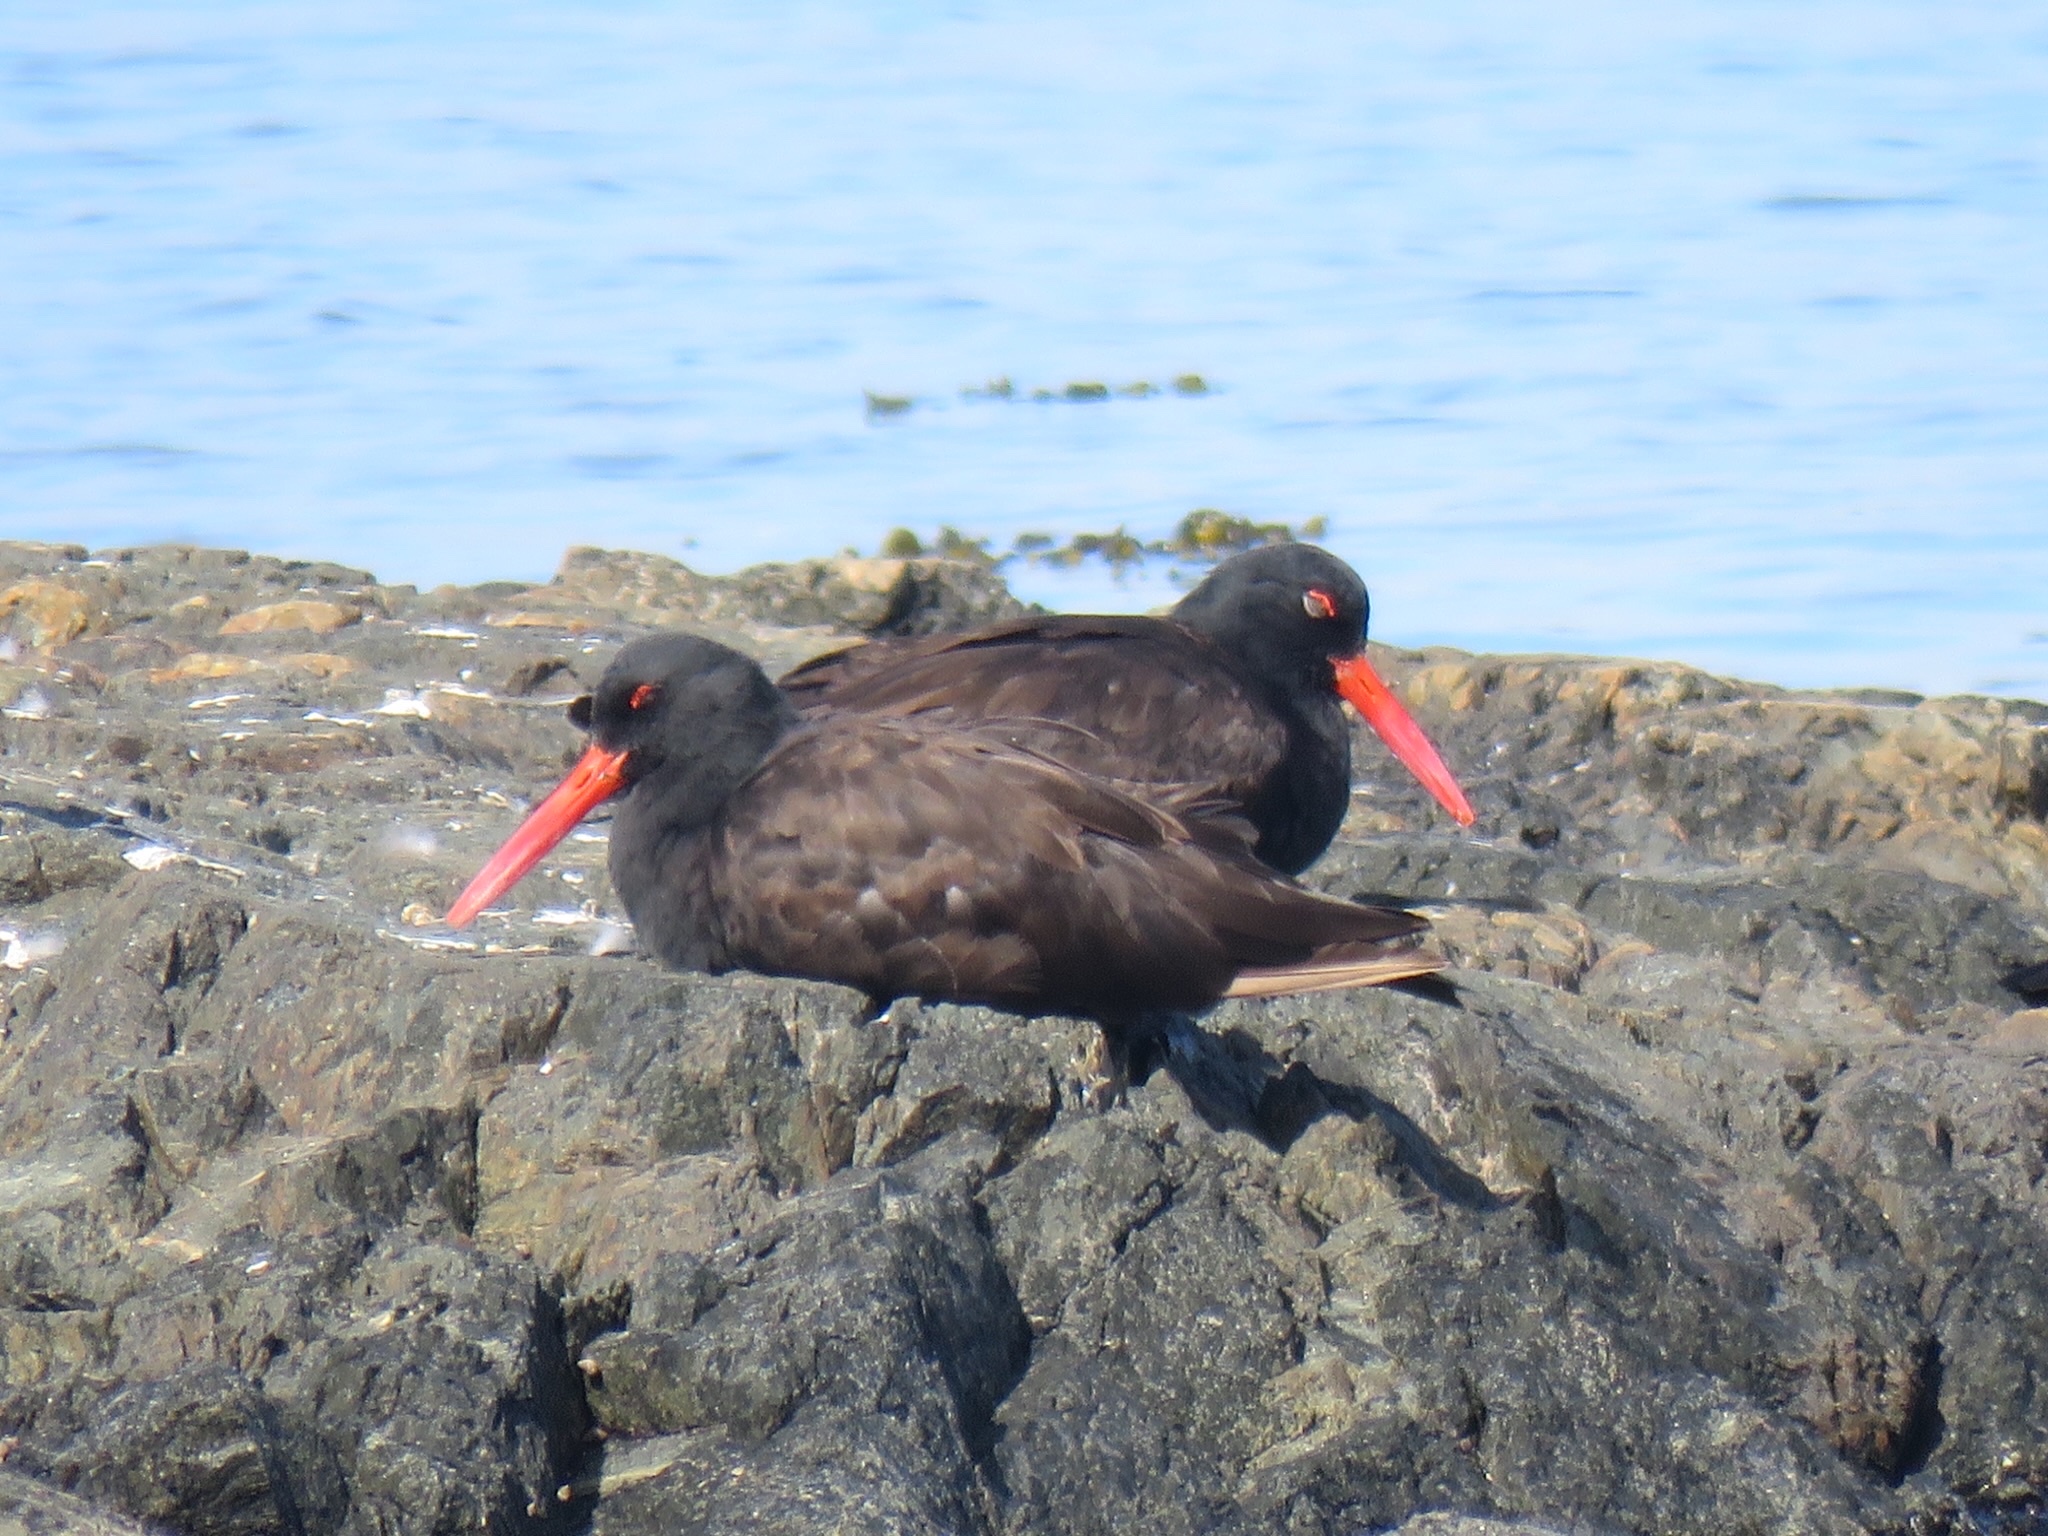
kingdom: Animalia
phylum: Chordata
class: Aves
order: Charadriiformes
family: Haematopodidae
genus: Haematopus
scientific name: Haematopus bachmani
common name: Black oystercatcher
